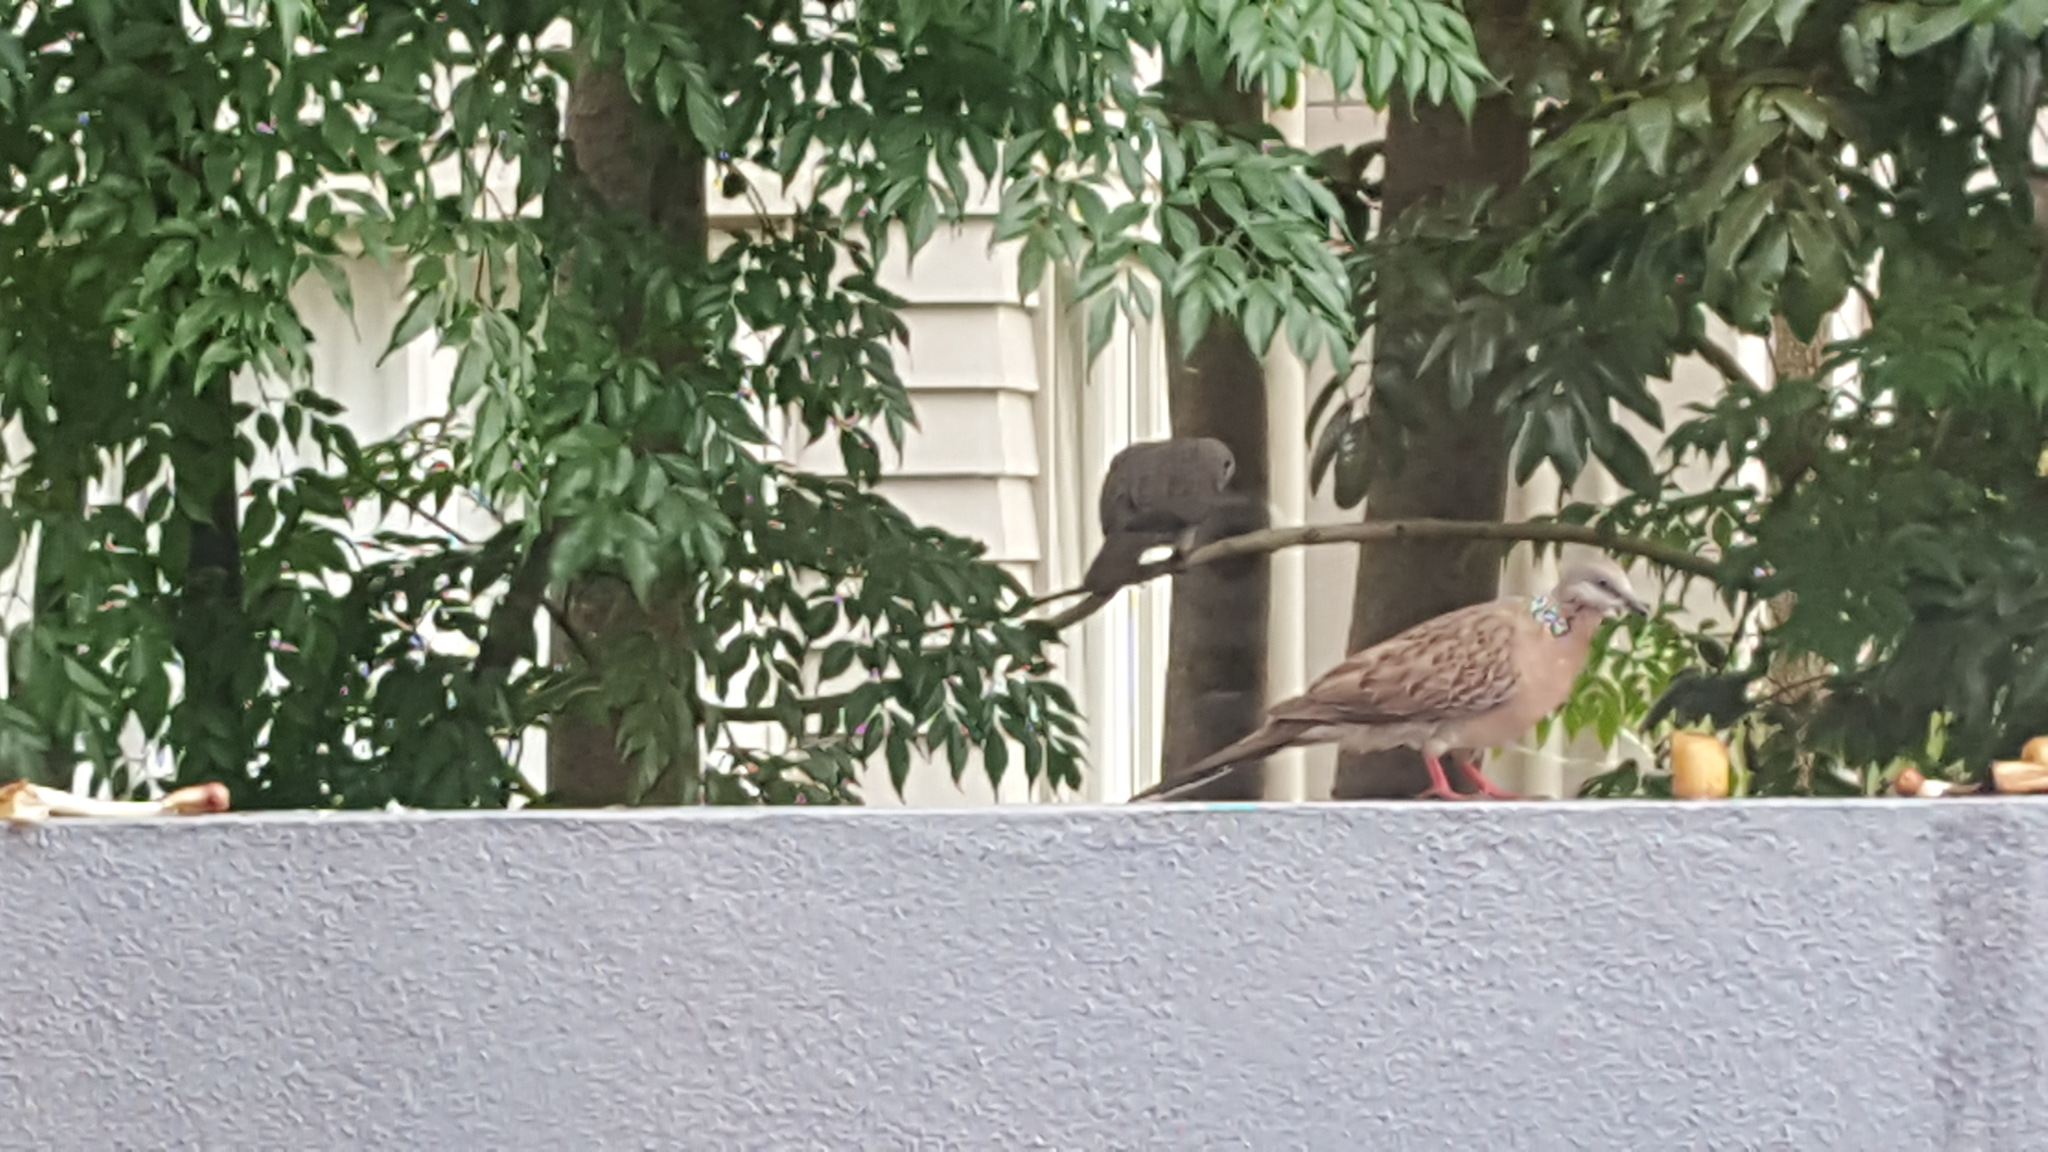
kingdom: Animalia
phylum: Chordata
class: Aves
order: Columbiformes
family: Columbidae
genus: Spilopelia
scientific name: Spilopelia chinensis
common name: Spotted dove
